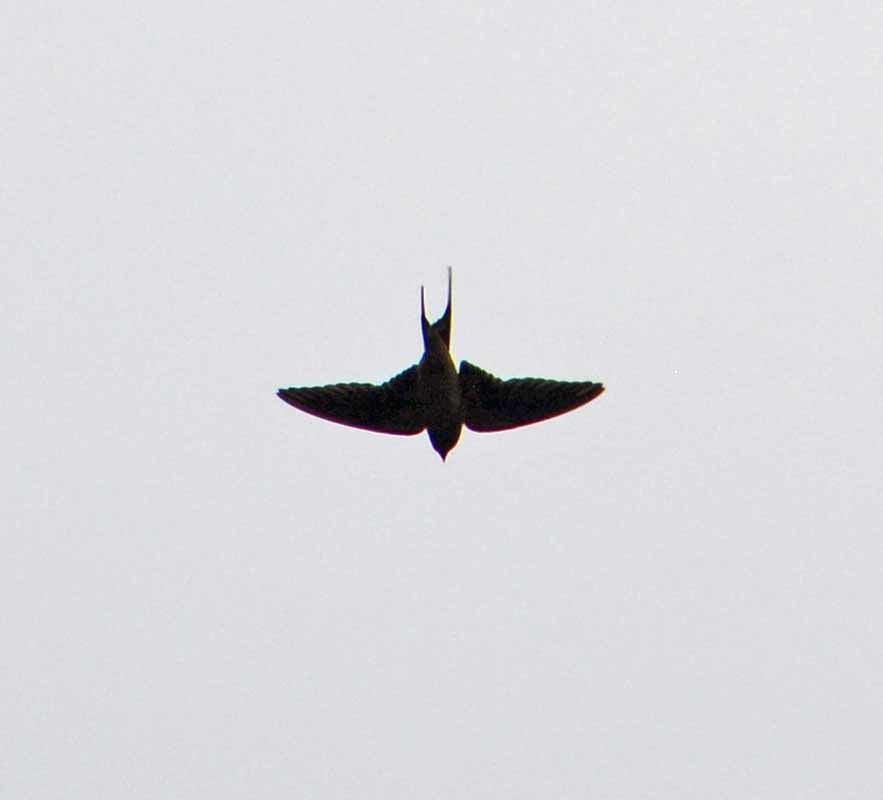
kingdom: Animalia
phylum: Chordata
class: Aves
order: Passeriformes
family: Hirundinidae
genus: Hirundo
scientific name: Hirundo rustica
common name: Barn swallow
